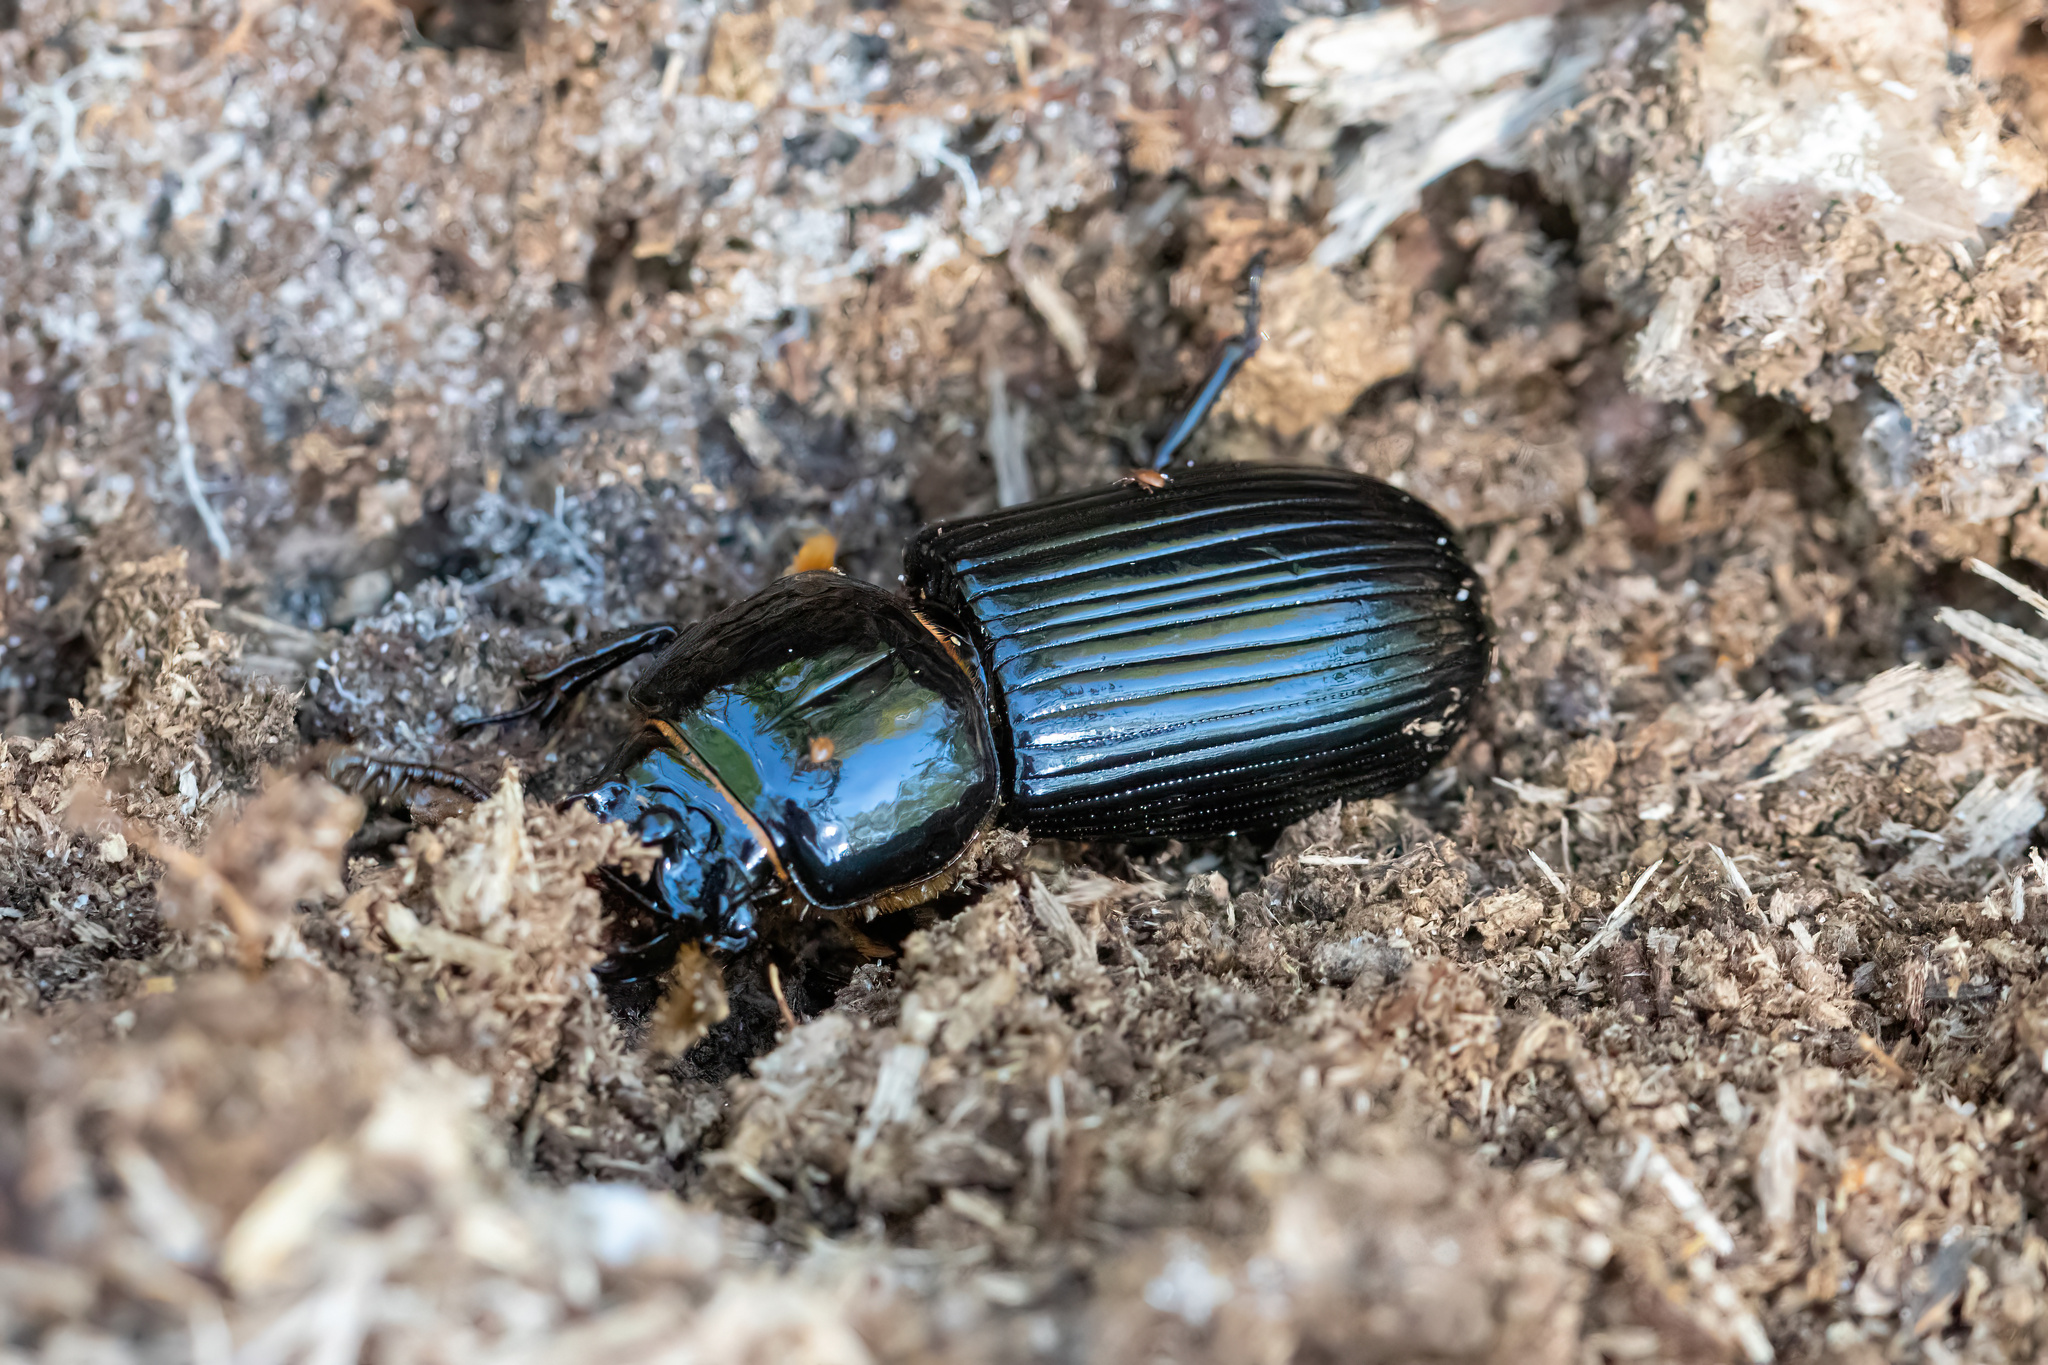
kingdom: Animalia
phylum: Arthropoda
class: Insecta
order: Coleoptera
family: Passalidae
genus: Odontotaenius
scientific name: Odontotaenius disjunctus
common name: Patent leather beetle
